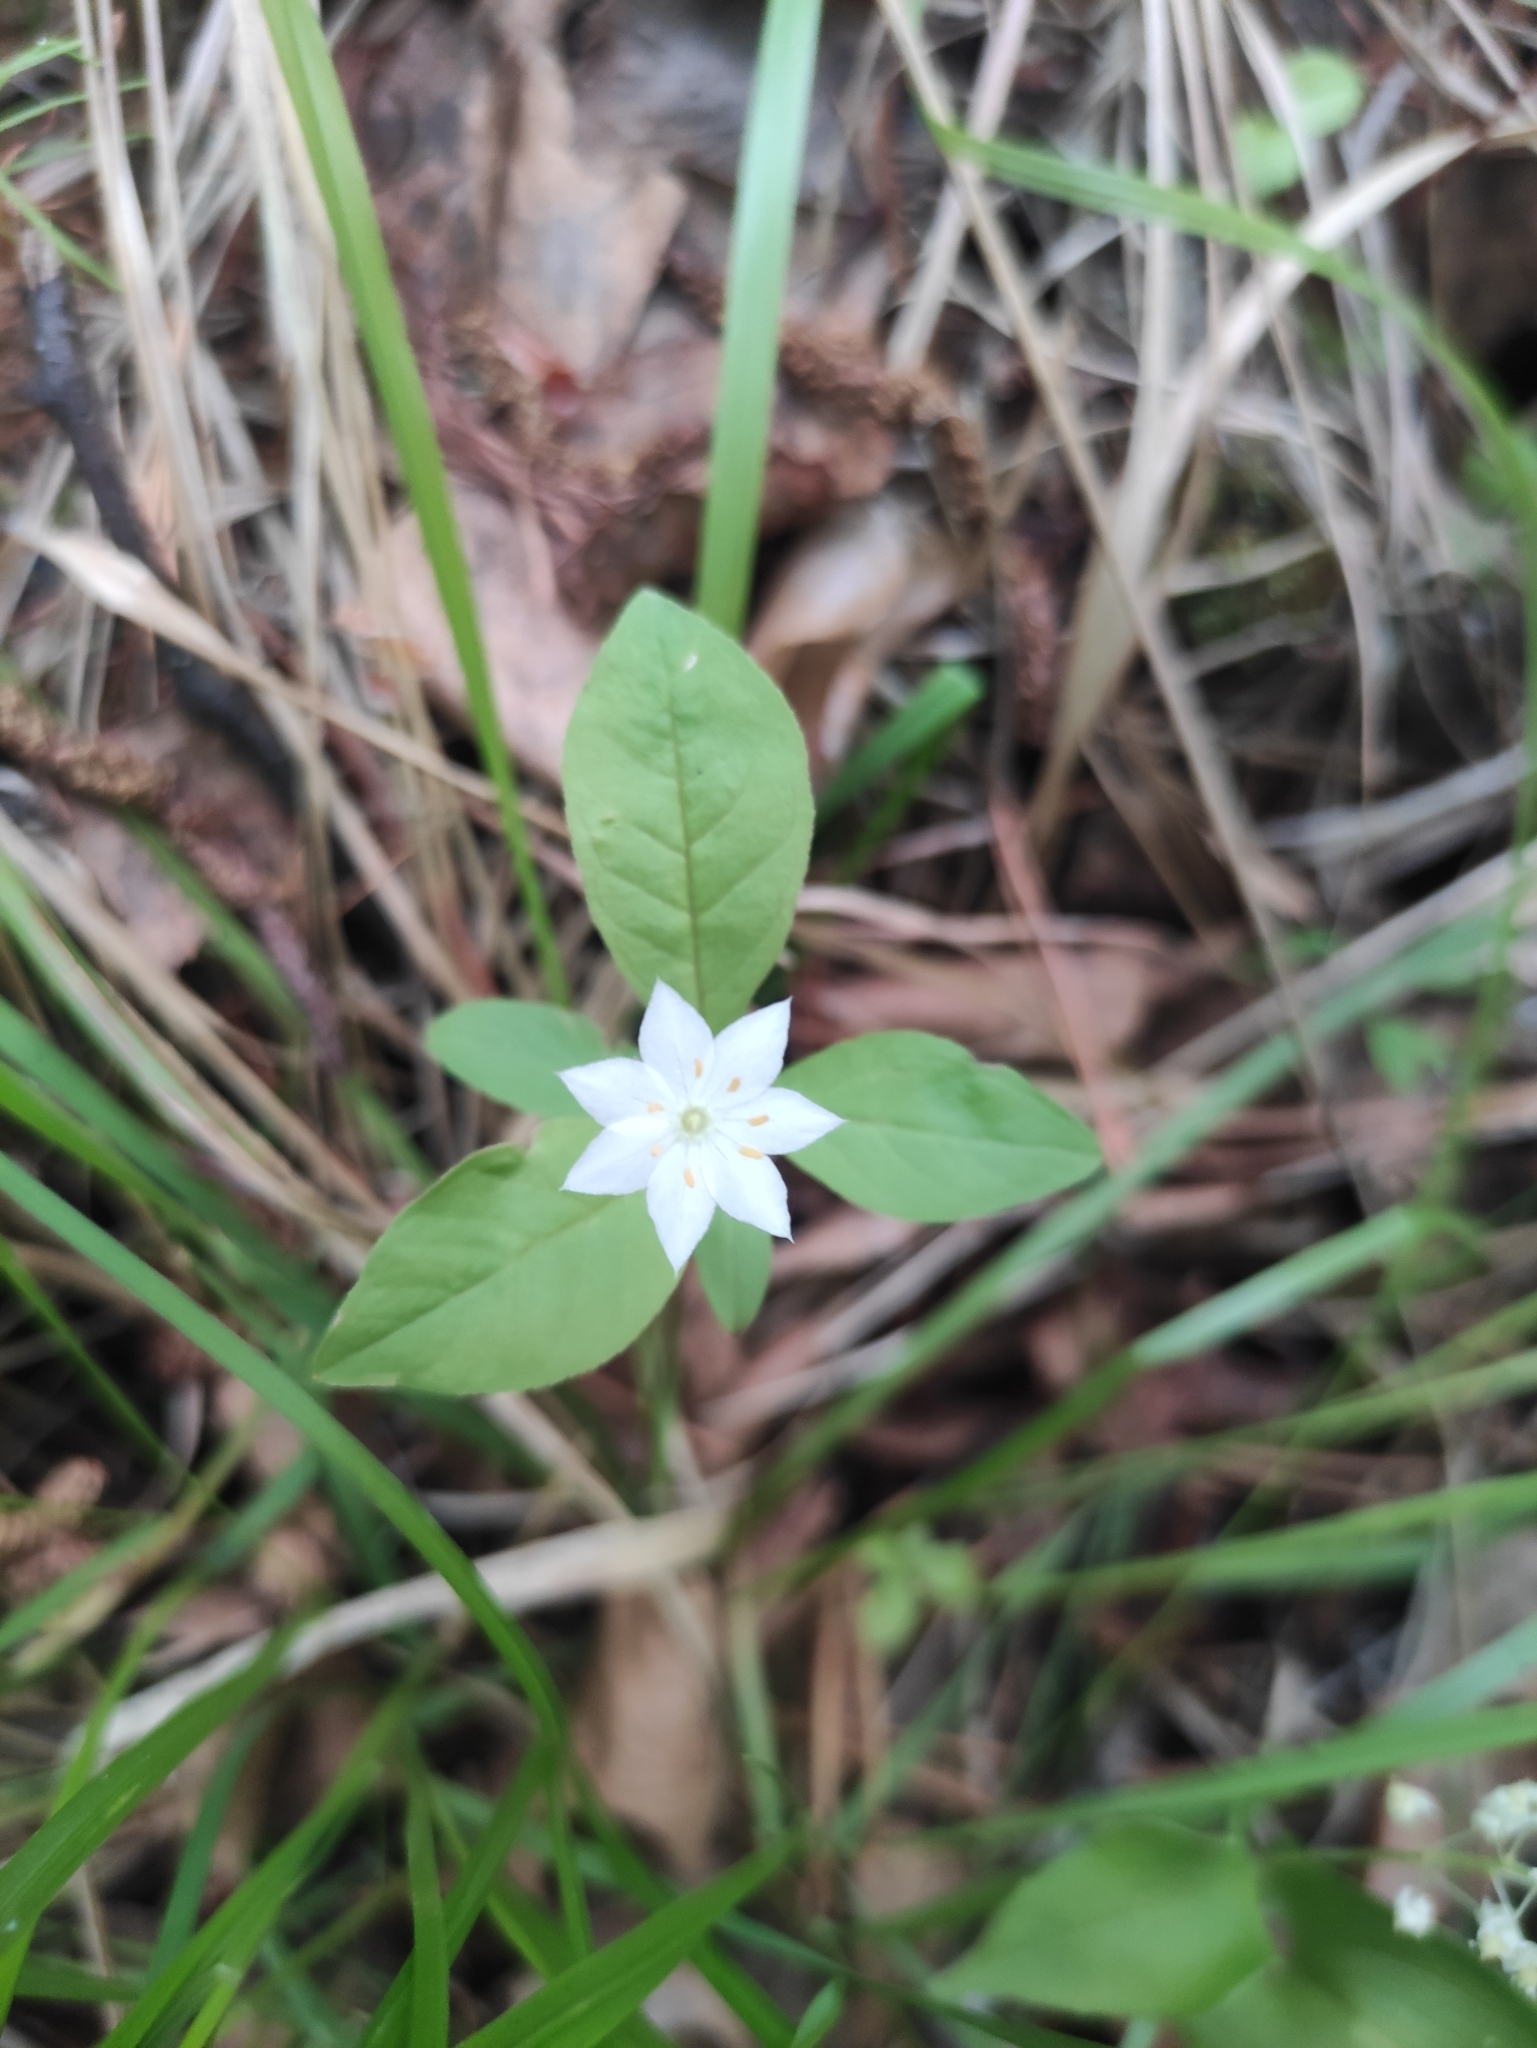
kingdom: Plantae
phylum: Tracheophyta
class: Magnoliopsida
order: Ericales
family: Primulaceae
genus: Lysimachia
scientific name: Lysimachia europaea
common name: Arctic starflower
